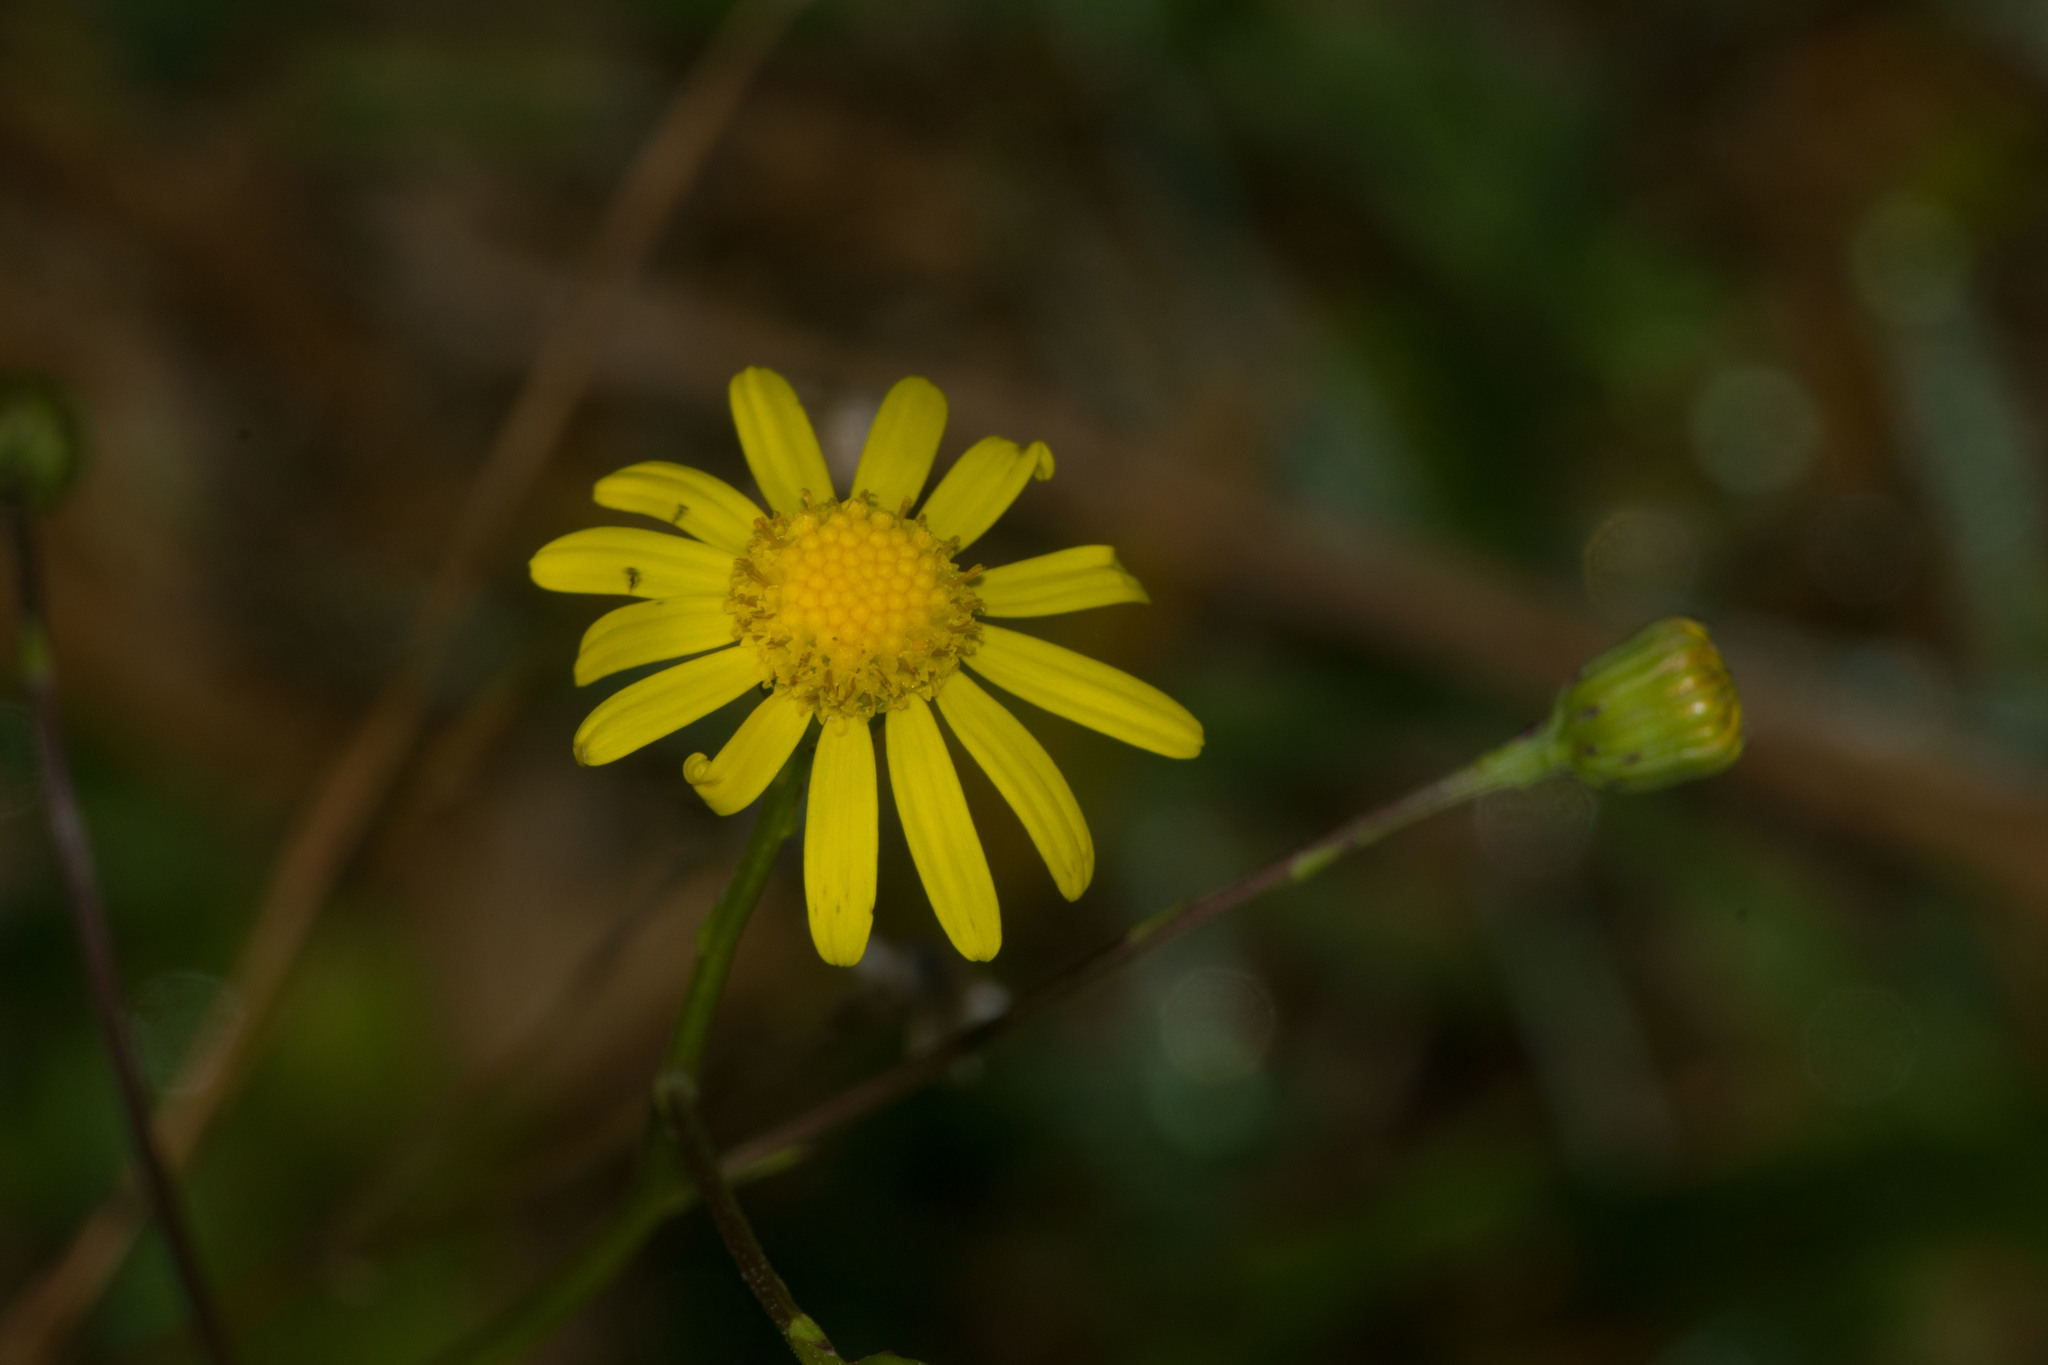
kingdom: Plantae
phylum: Tracheophyta
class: Magnoliopsida
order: Asterales
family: Asteraceae
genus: Senecio
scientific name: Senecio madagascariensis
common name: Madagascar ragwort
